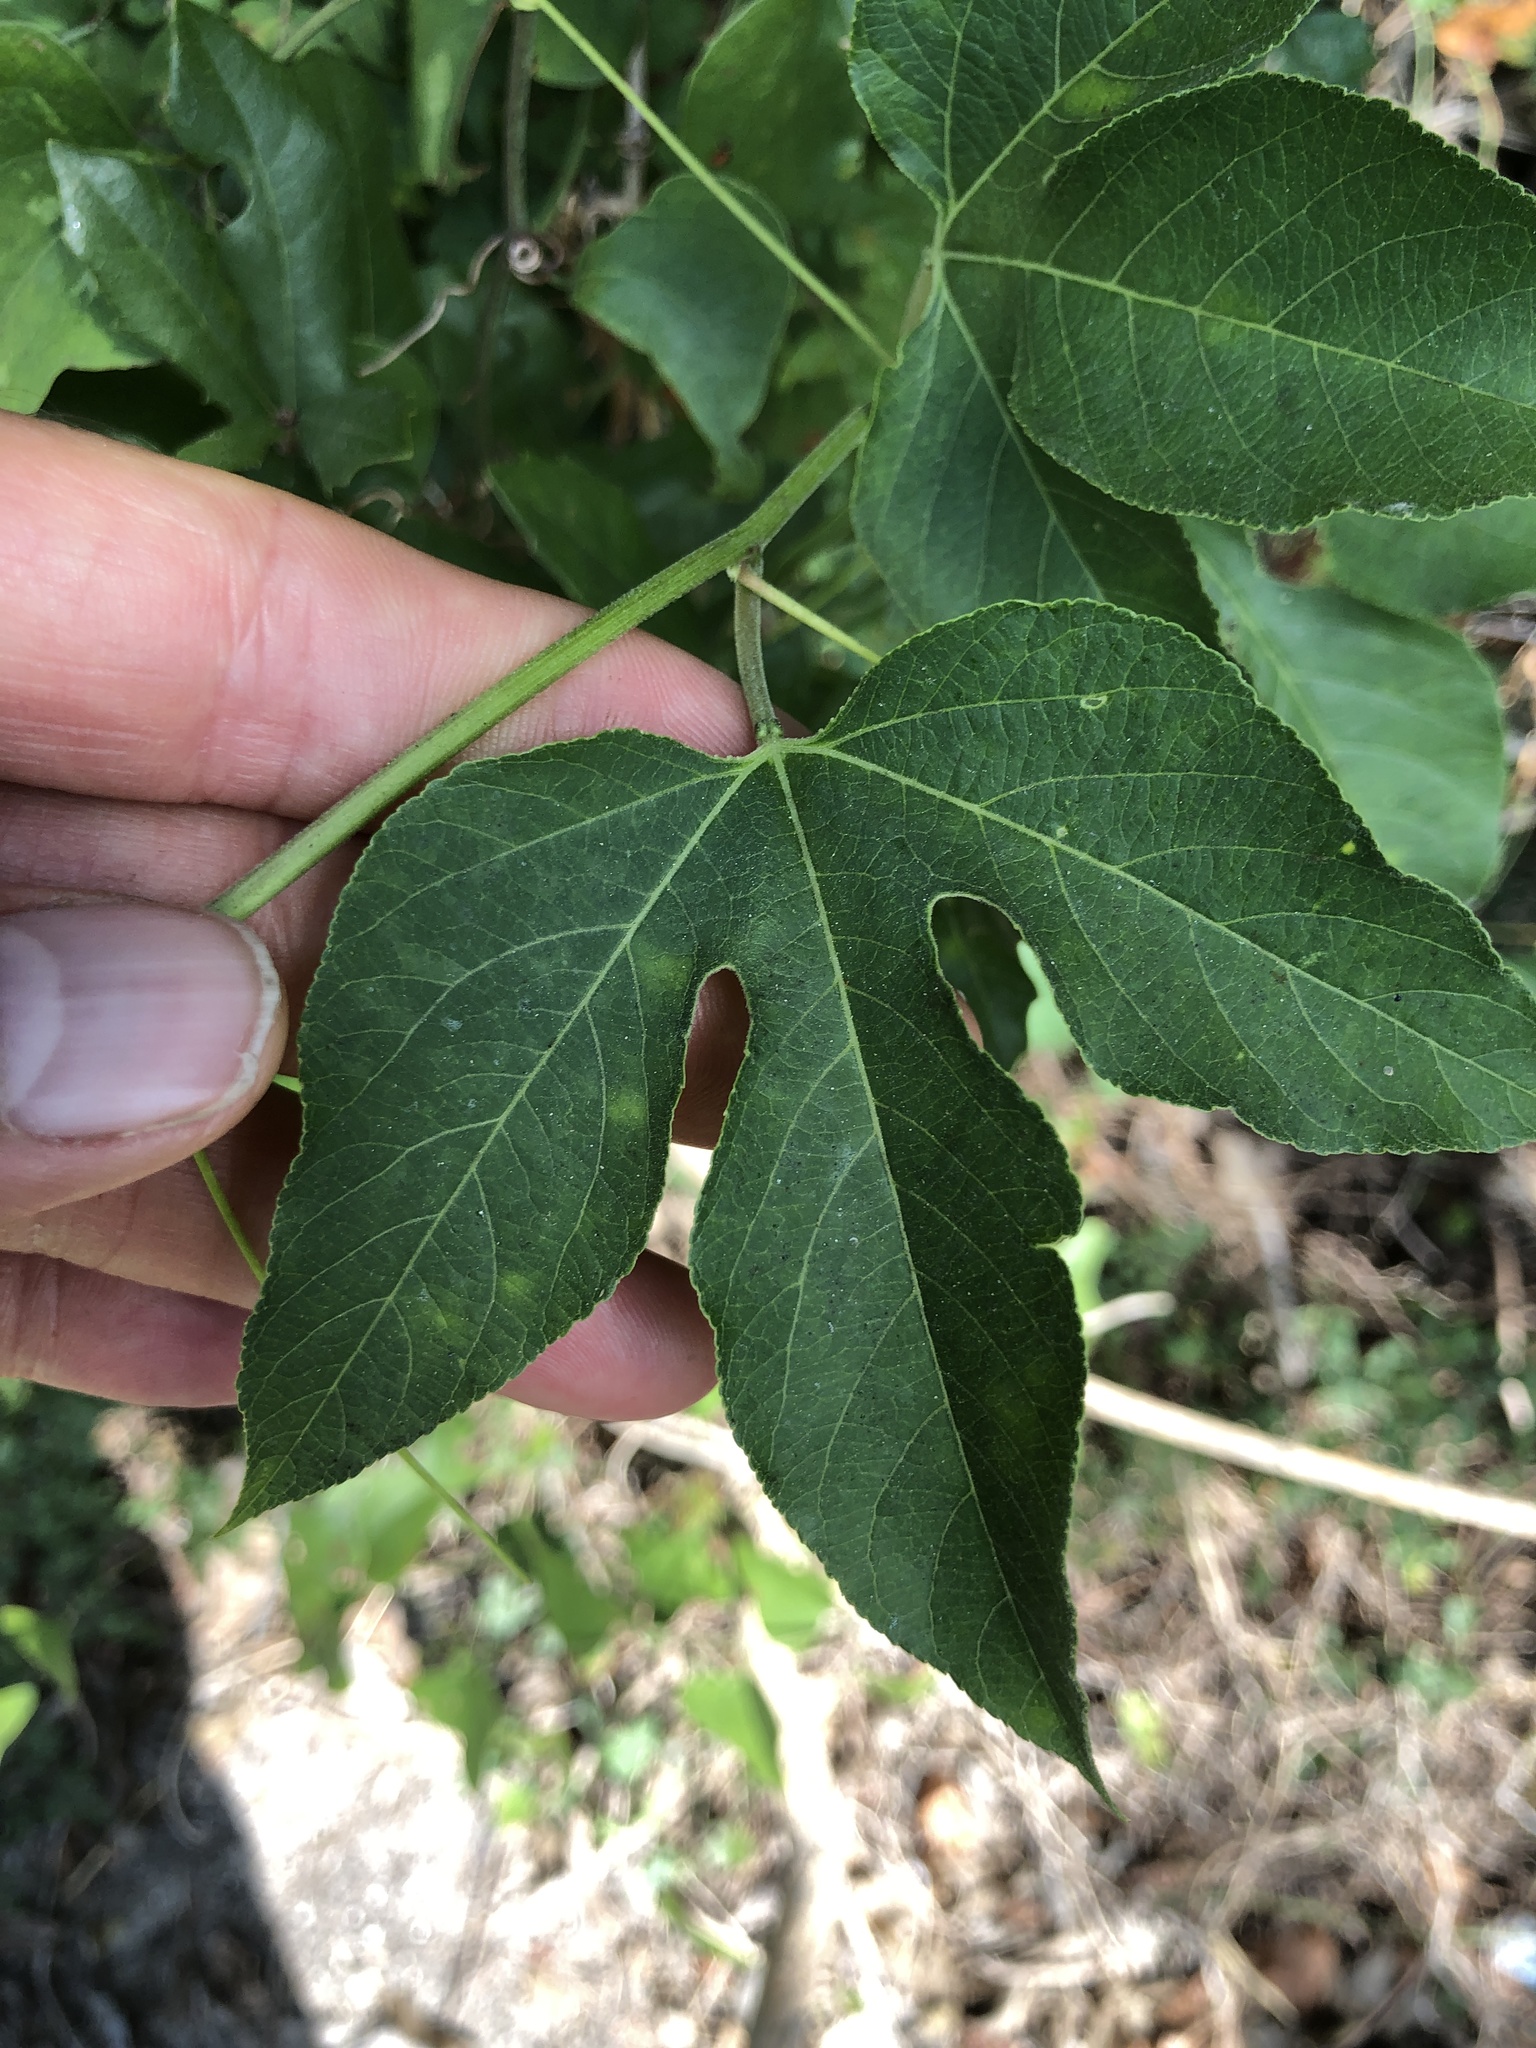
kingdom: Plantae
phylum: Tracheophyta
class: Magnoliopsida
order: Malpighiales
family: Passifloraceae
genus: Passiflora
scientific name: Passiflora incarnata
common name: Apricot-vine
